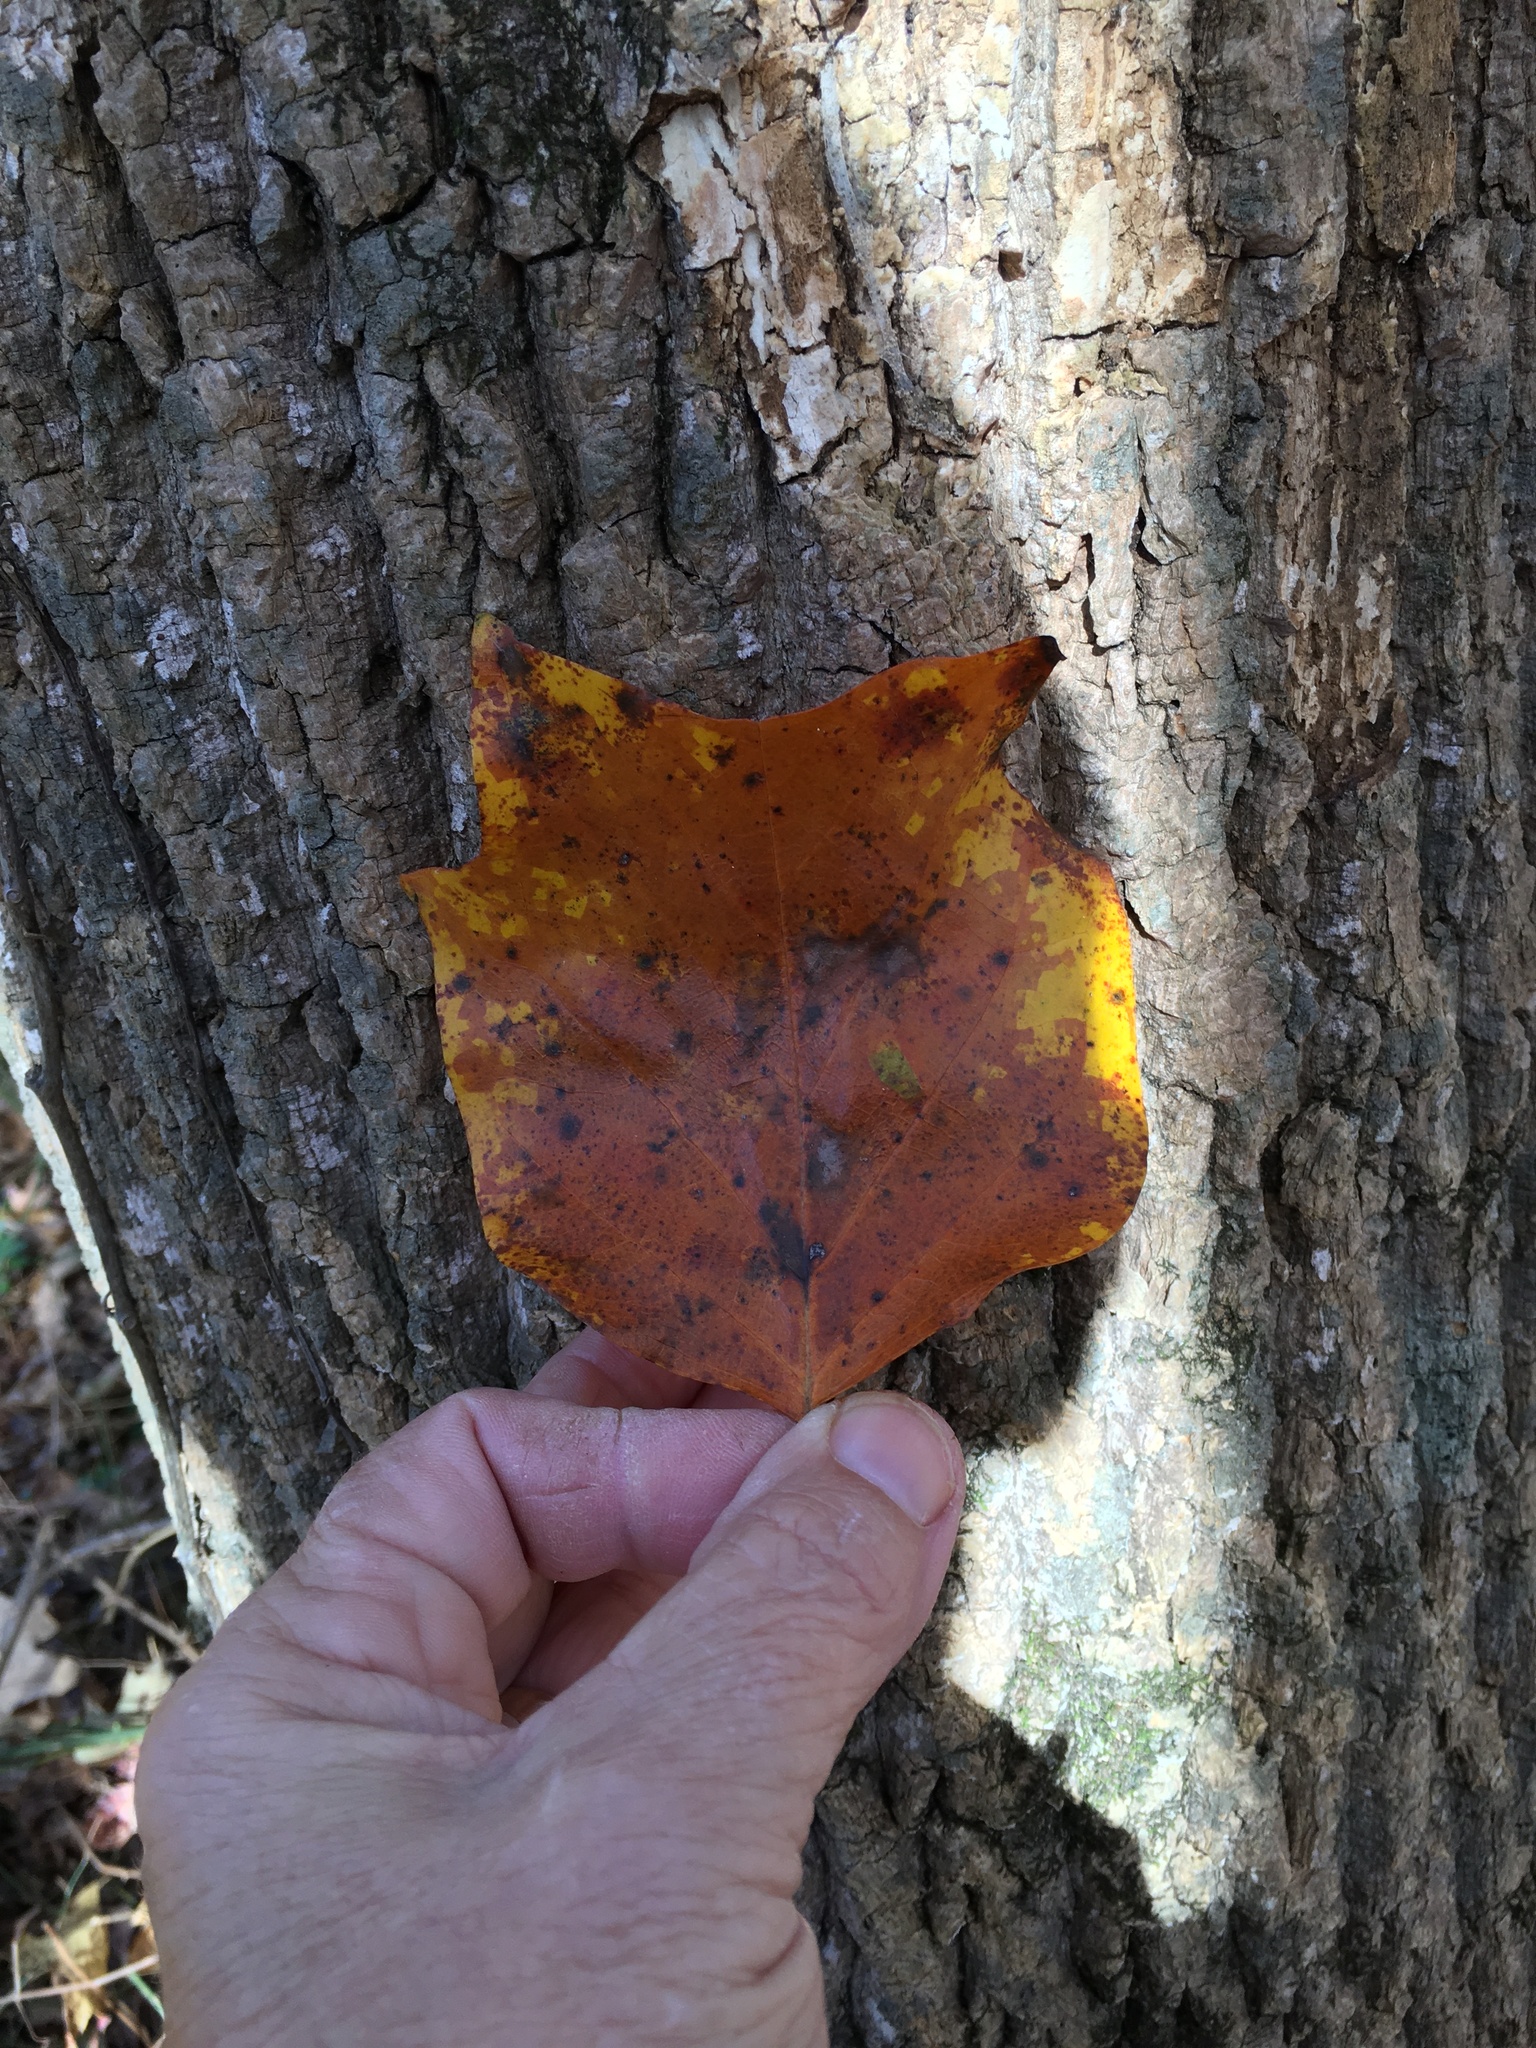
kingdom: Plantae
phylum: Tracheophyta
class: Magnoliopsida
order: Magnoliales
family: Magnoliaceae
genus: Liriodendron
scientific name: Liriodendron tulipifera
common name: Tulip tree
